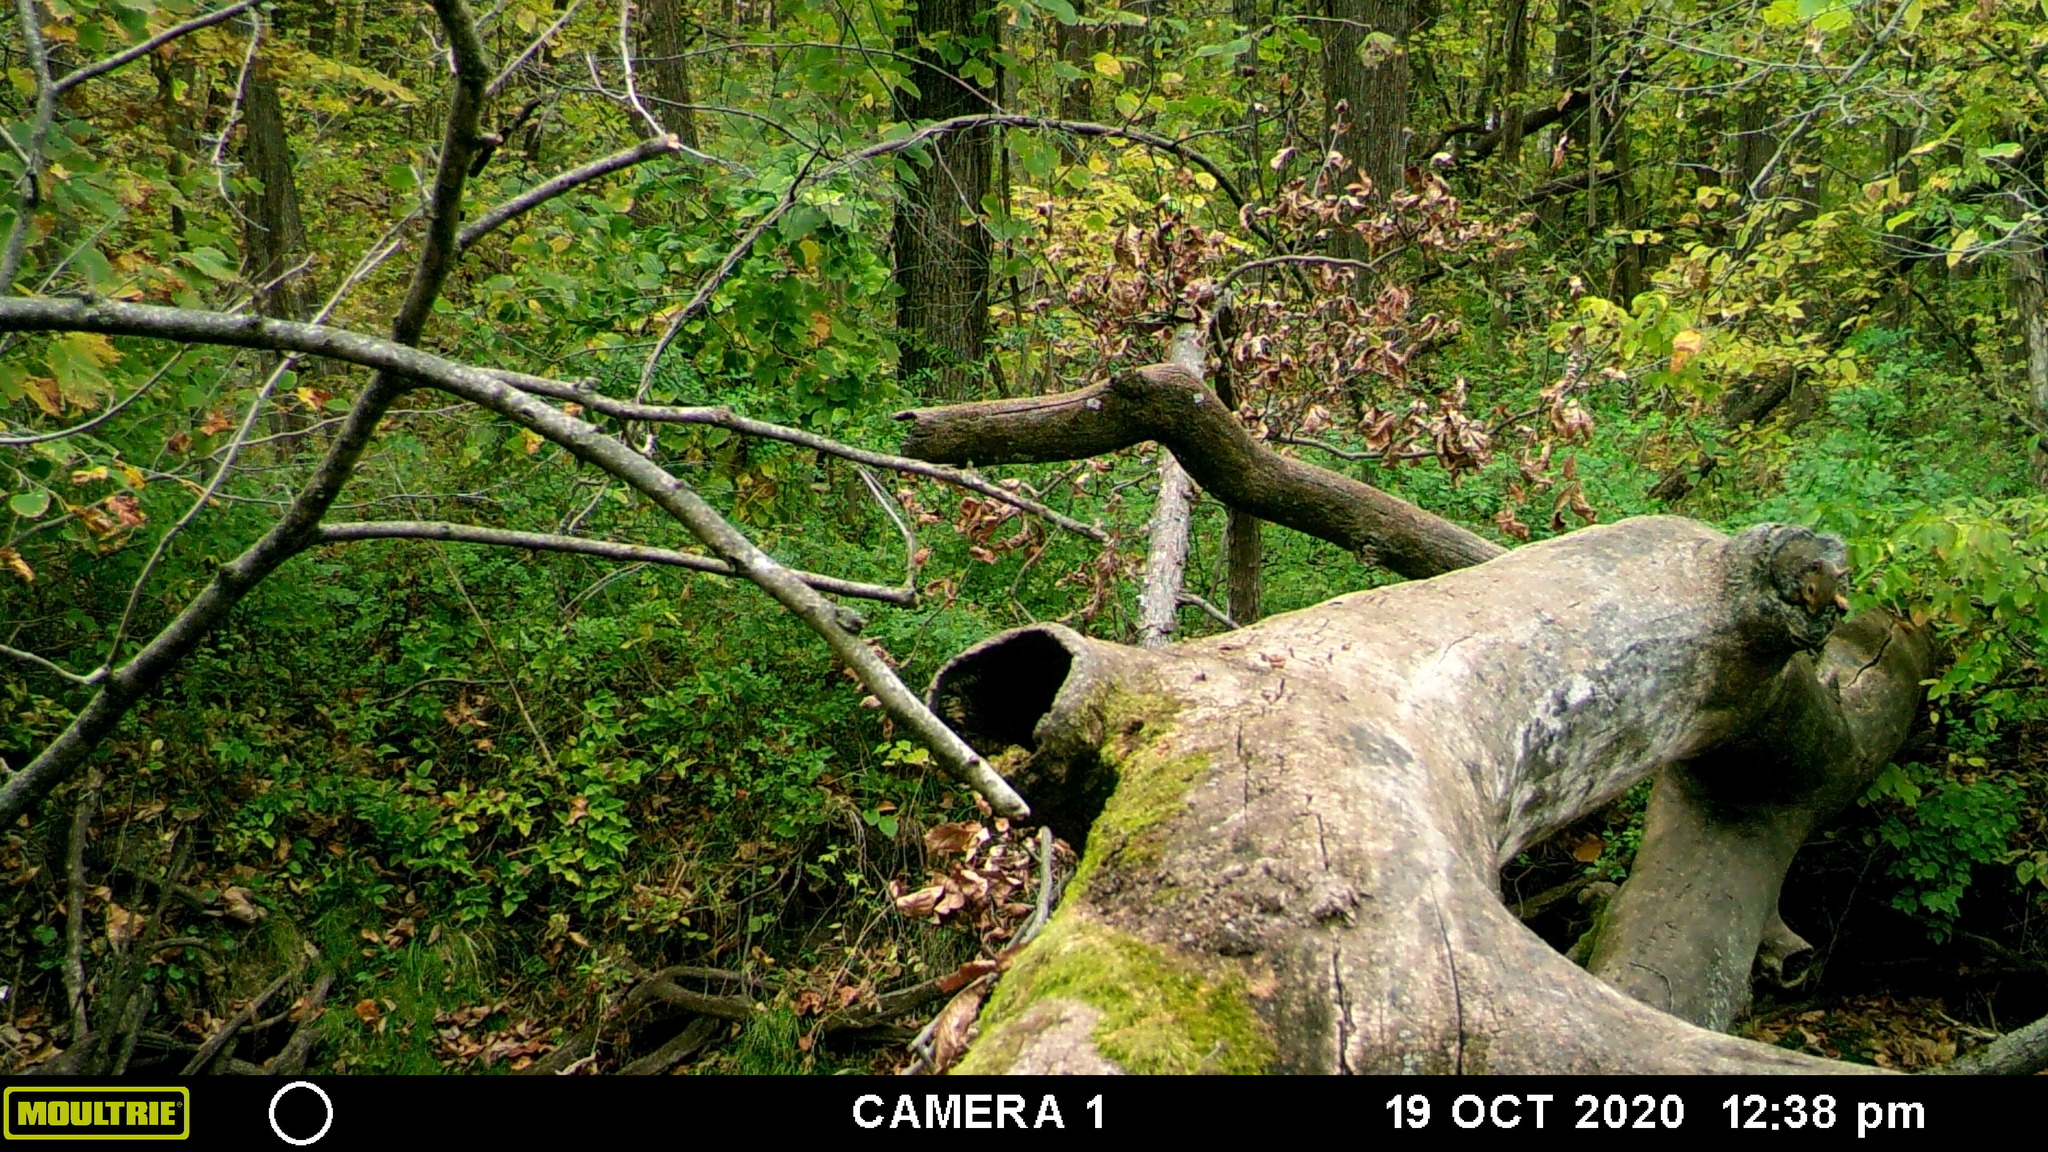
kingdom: Animalia
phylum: Chordata
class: Mammalia
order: Rodentia
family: Sciuridae
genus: Sciurus
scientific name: Sciurus carolinensis
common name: Eastern gray squirrel
